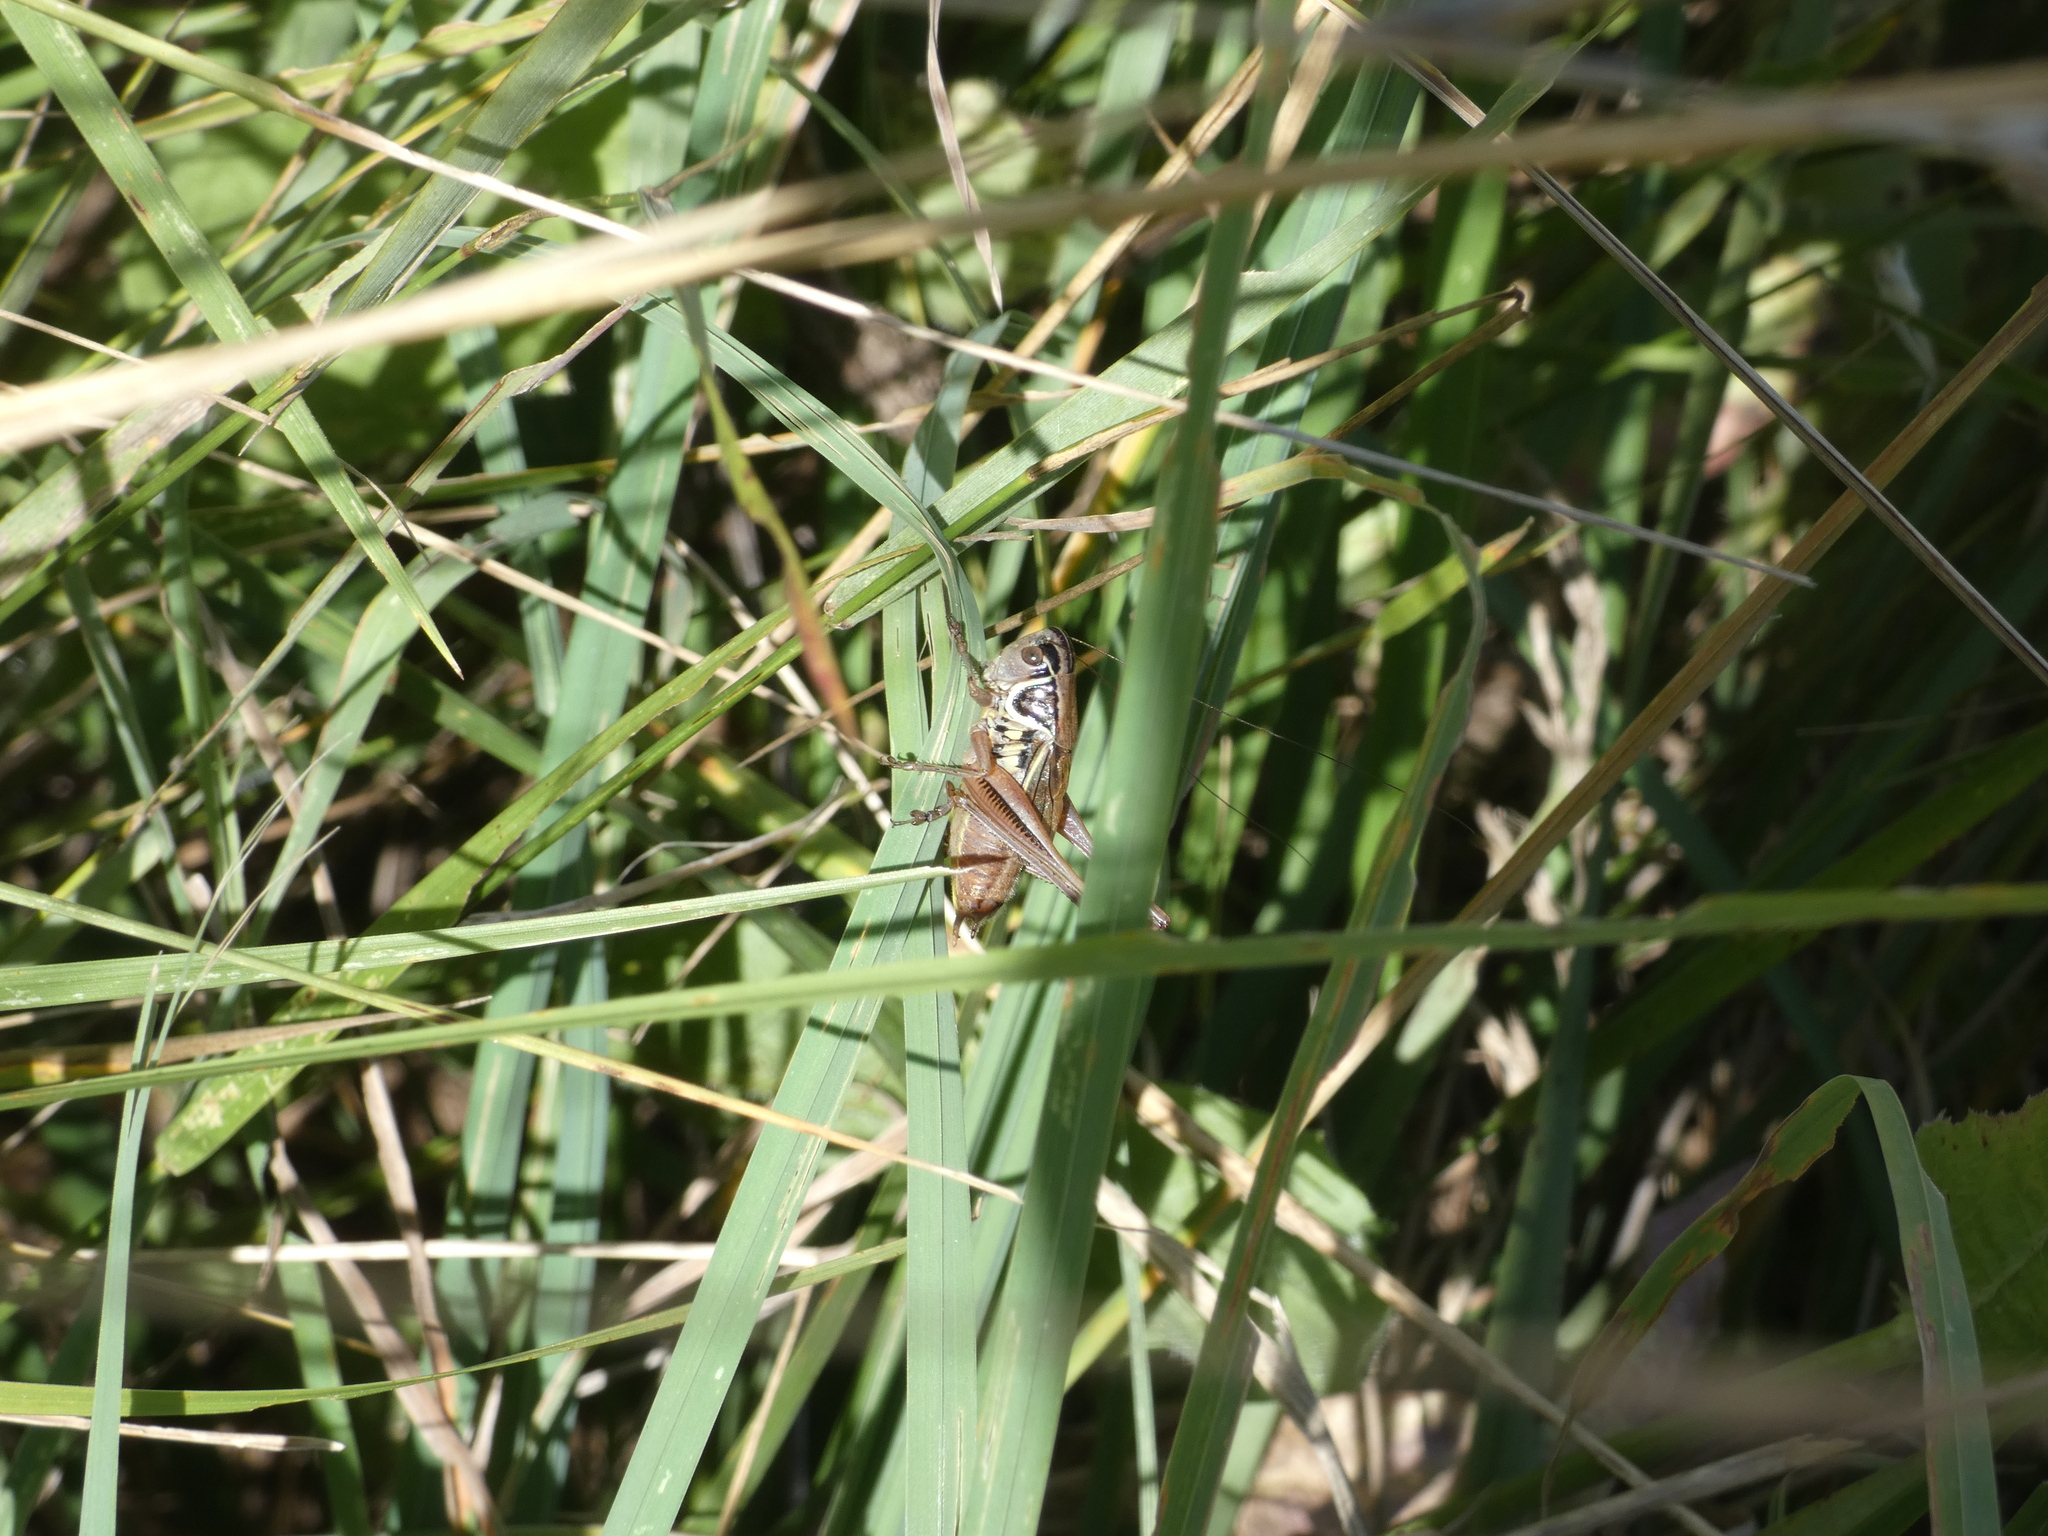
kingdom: Animalia
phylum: Arthropoda
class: Insecta
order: Orthoptera
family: Tettigoniidae
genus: Roeseliana
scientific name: Roeseliana azami
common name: French meadow bush-cricket
